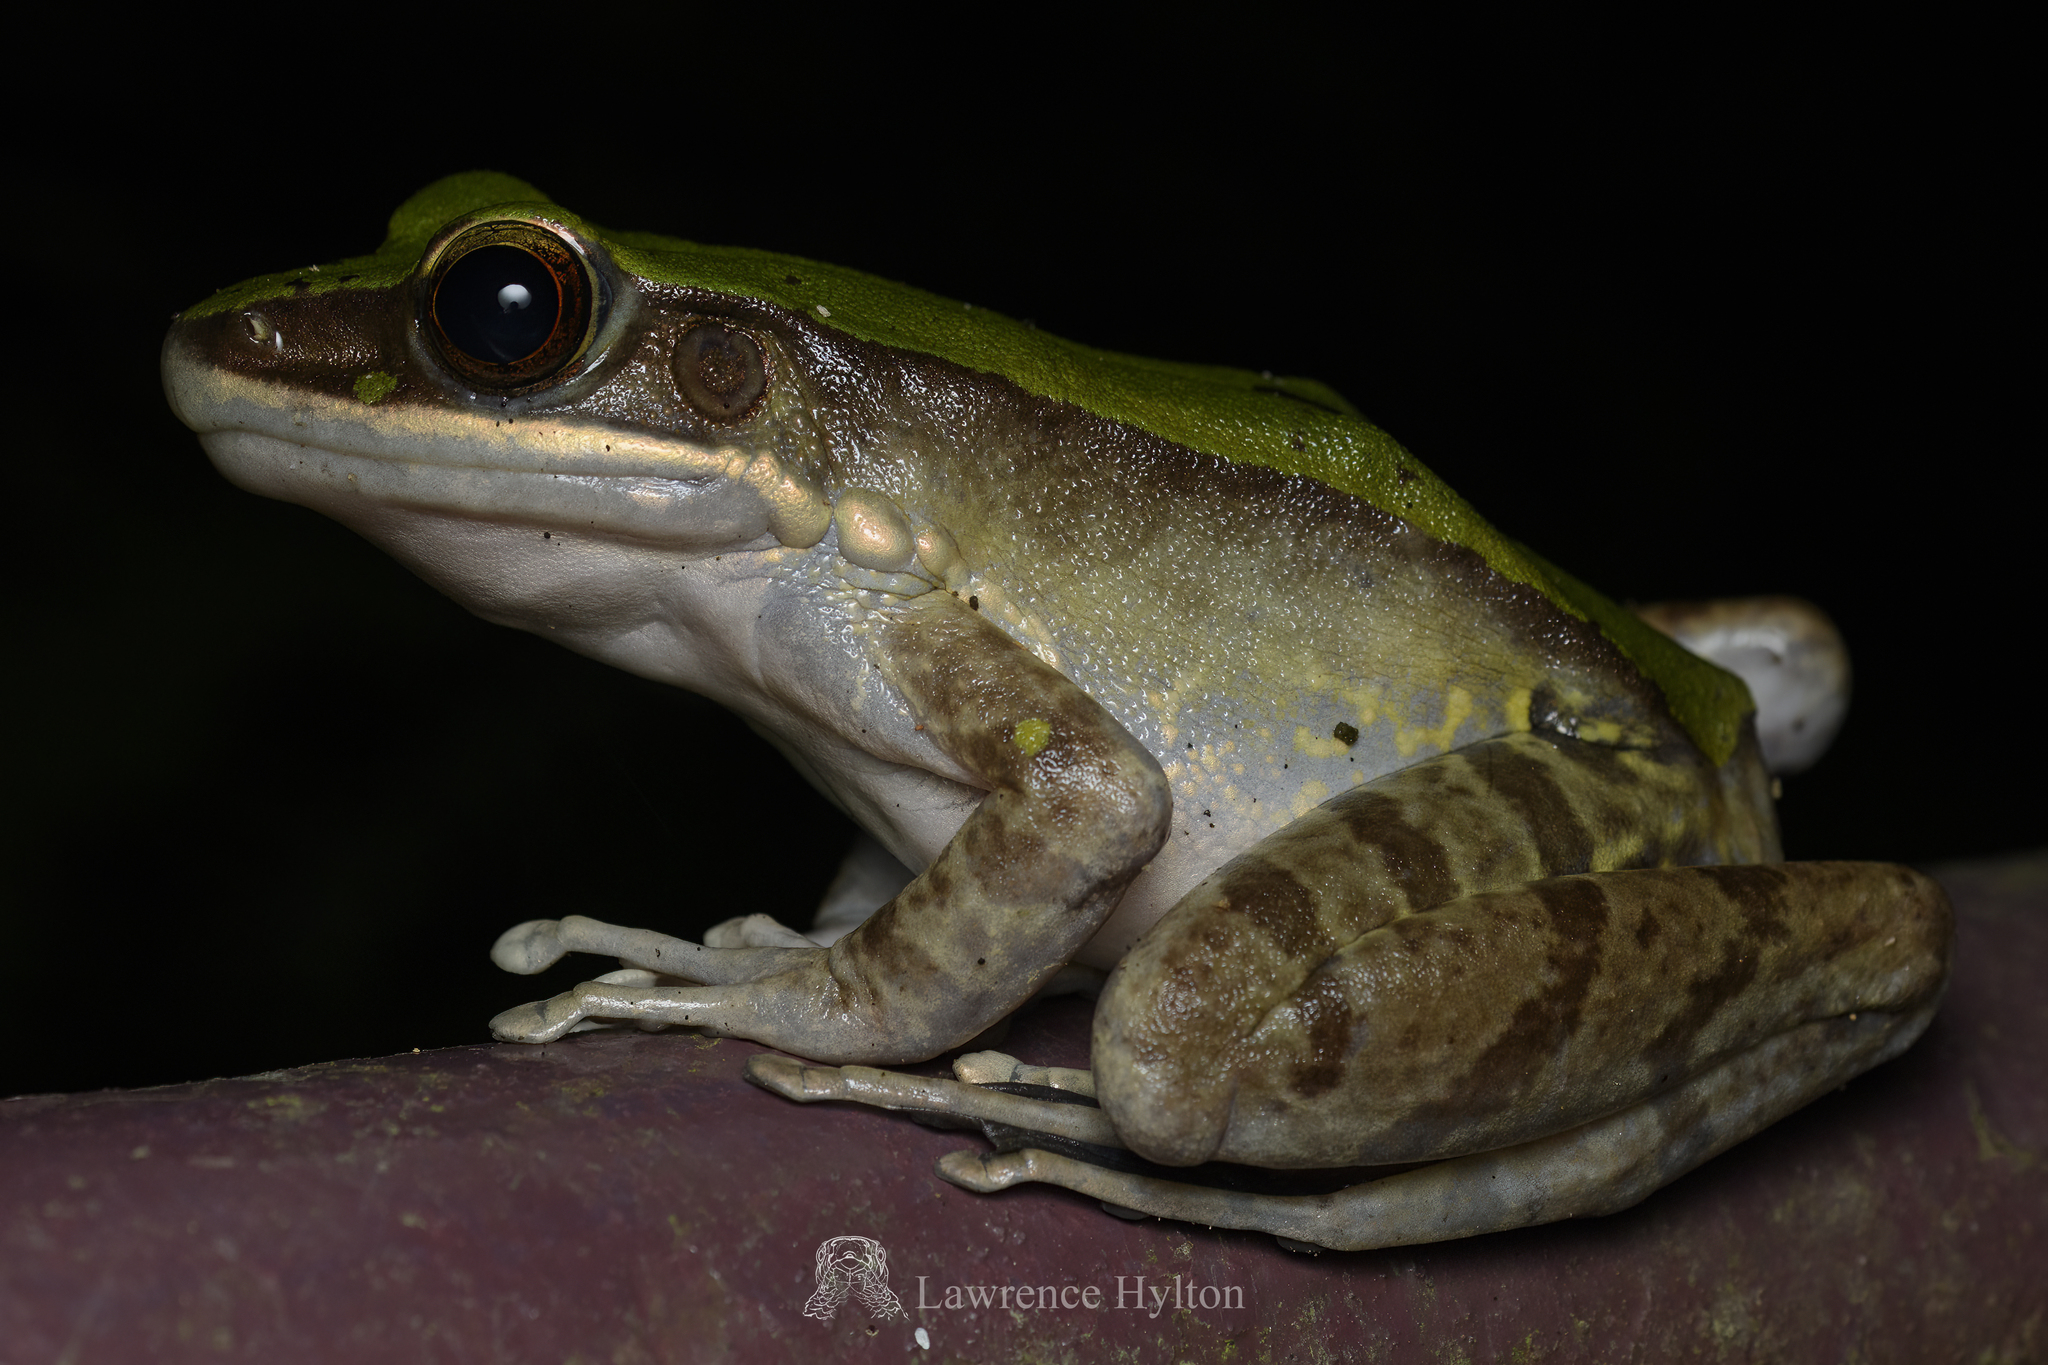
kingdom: Animalia
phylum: Chordata
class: Amphibia
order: Anura
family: Ranidae
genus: Odorrana
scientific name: Odorrana graminea
